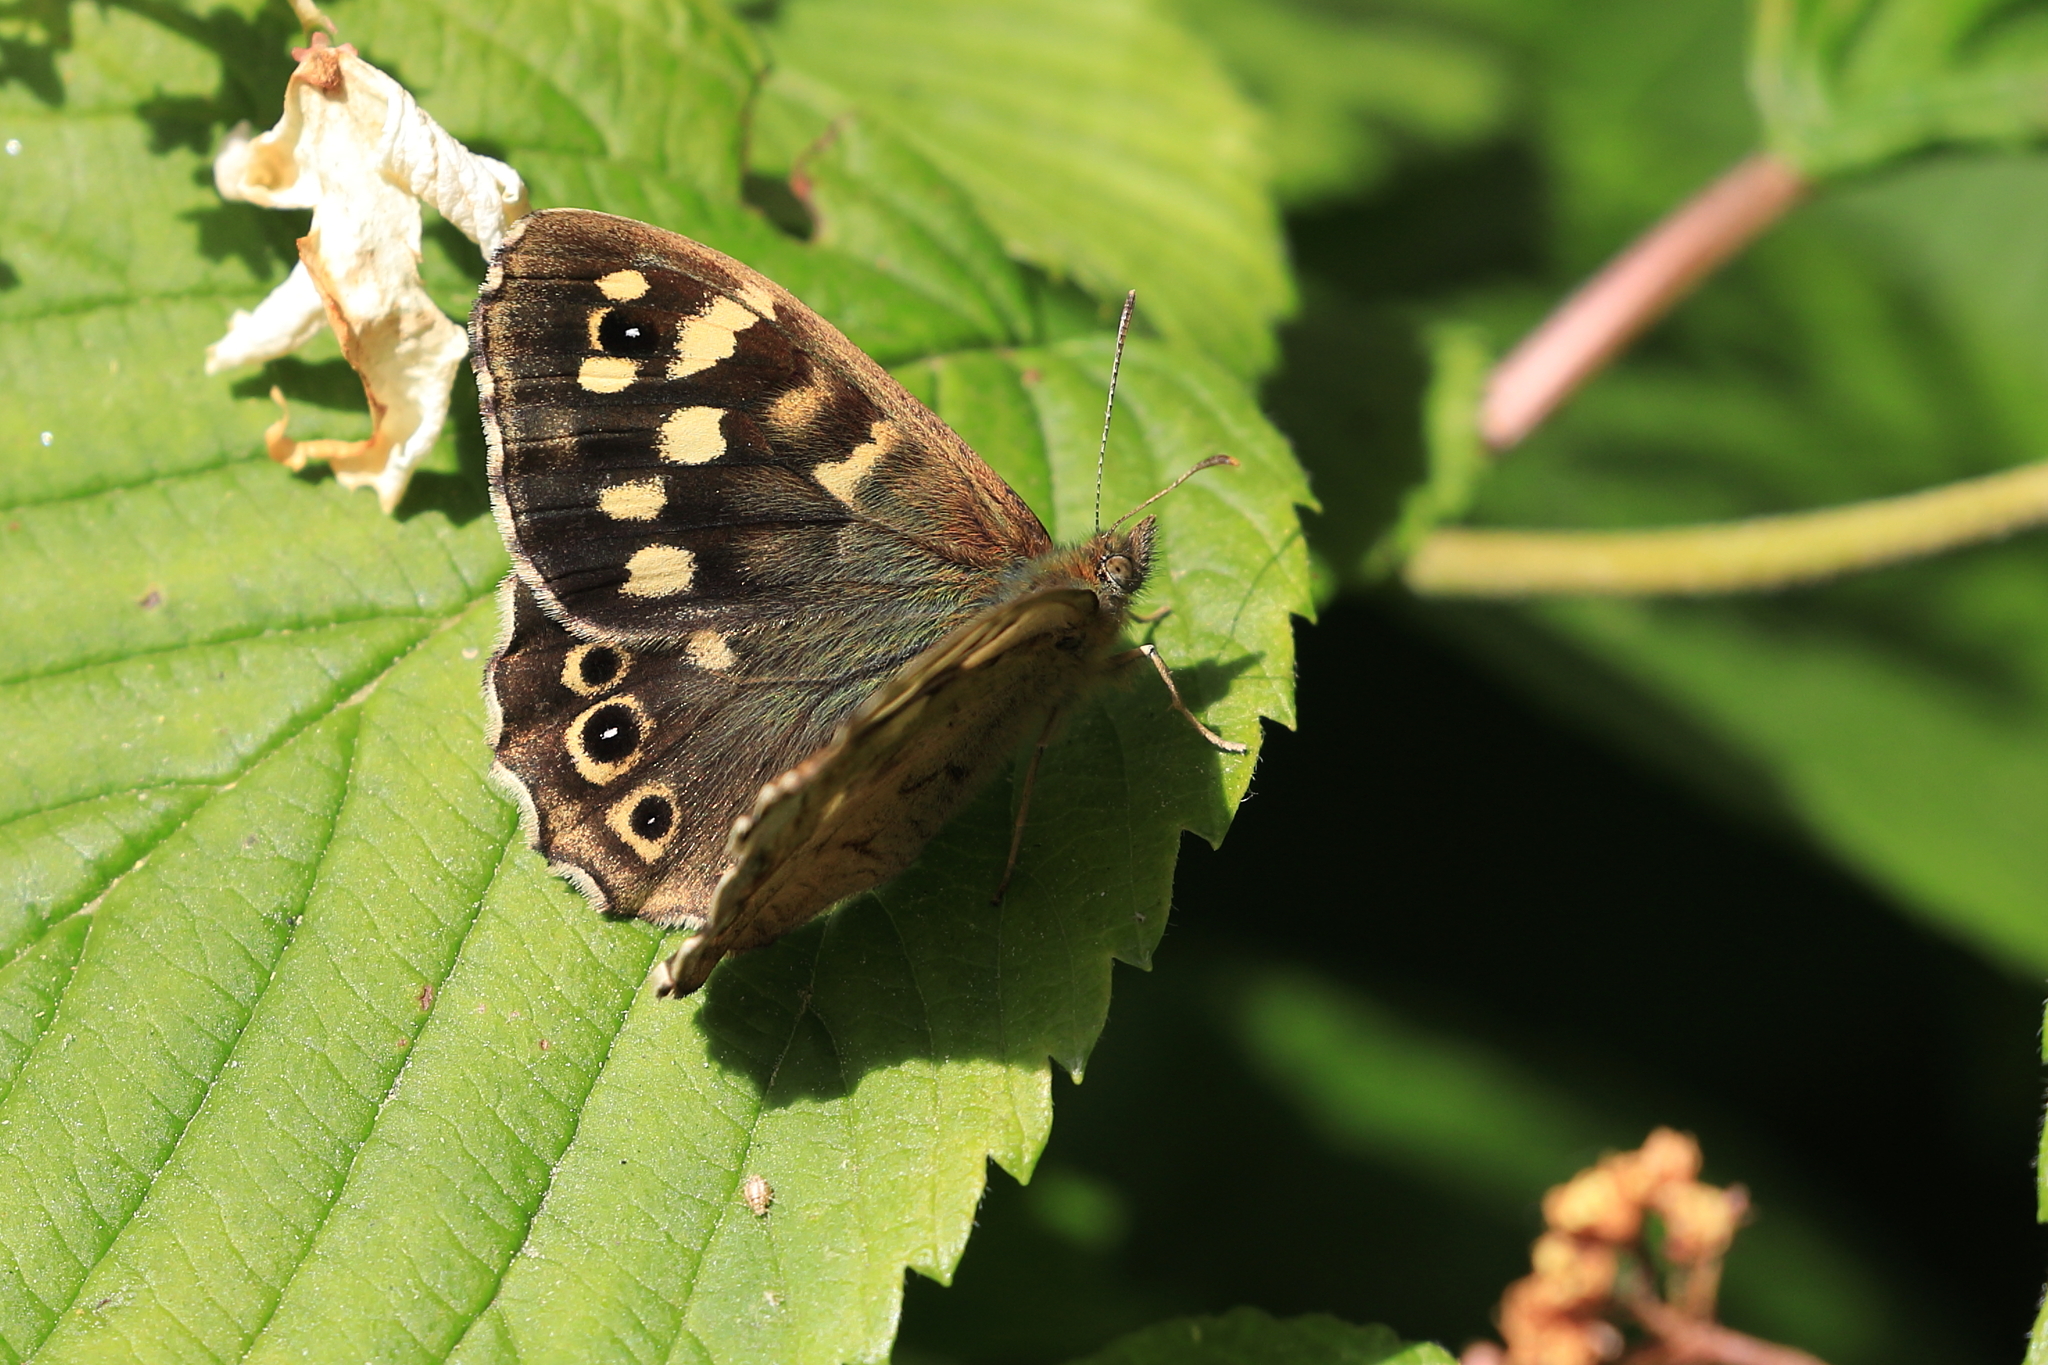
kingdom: Animalia
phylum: Arthropoda
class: Insecta
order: Lepidoptera
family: Nymphalidae
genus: Pararge
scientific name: Pararge aegeria
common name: Speckled wood
